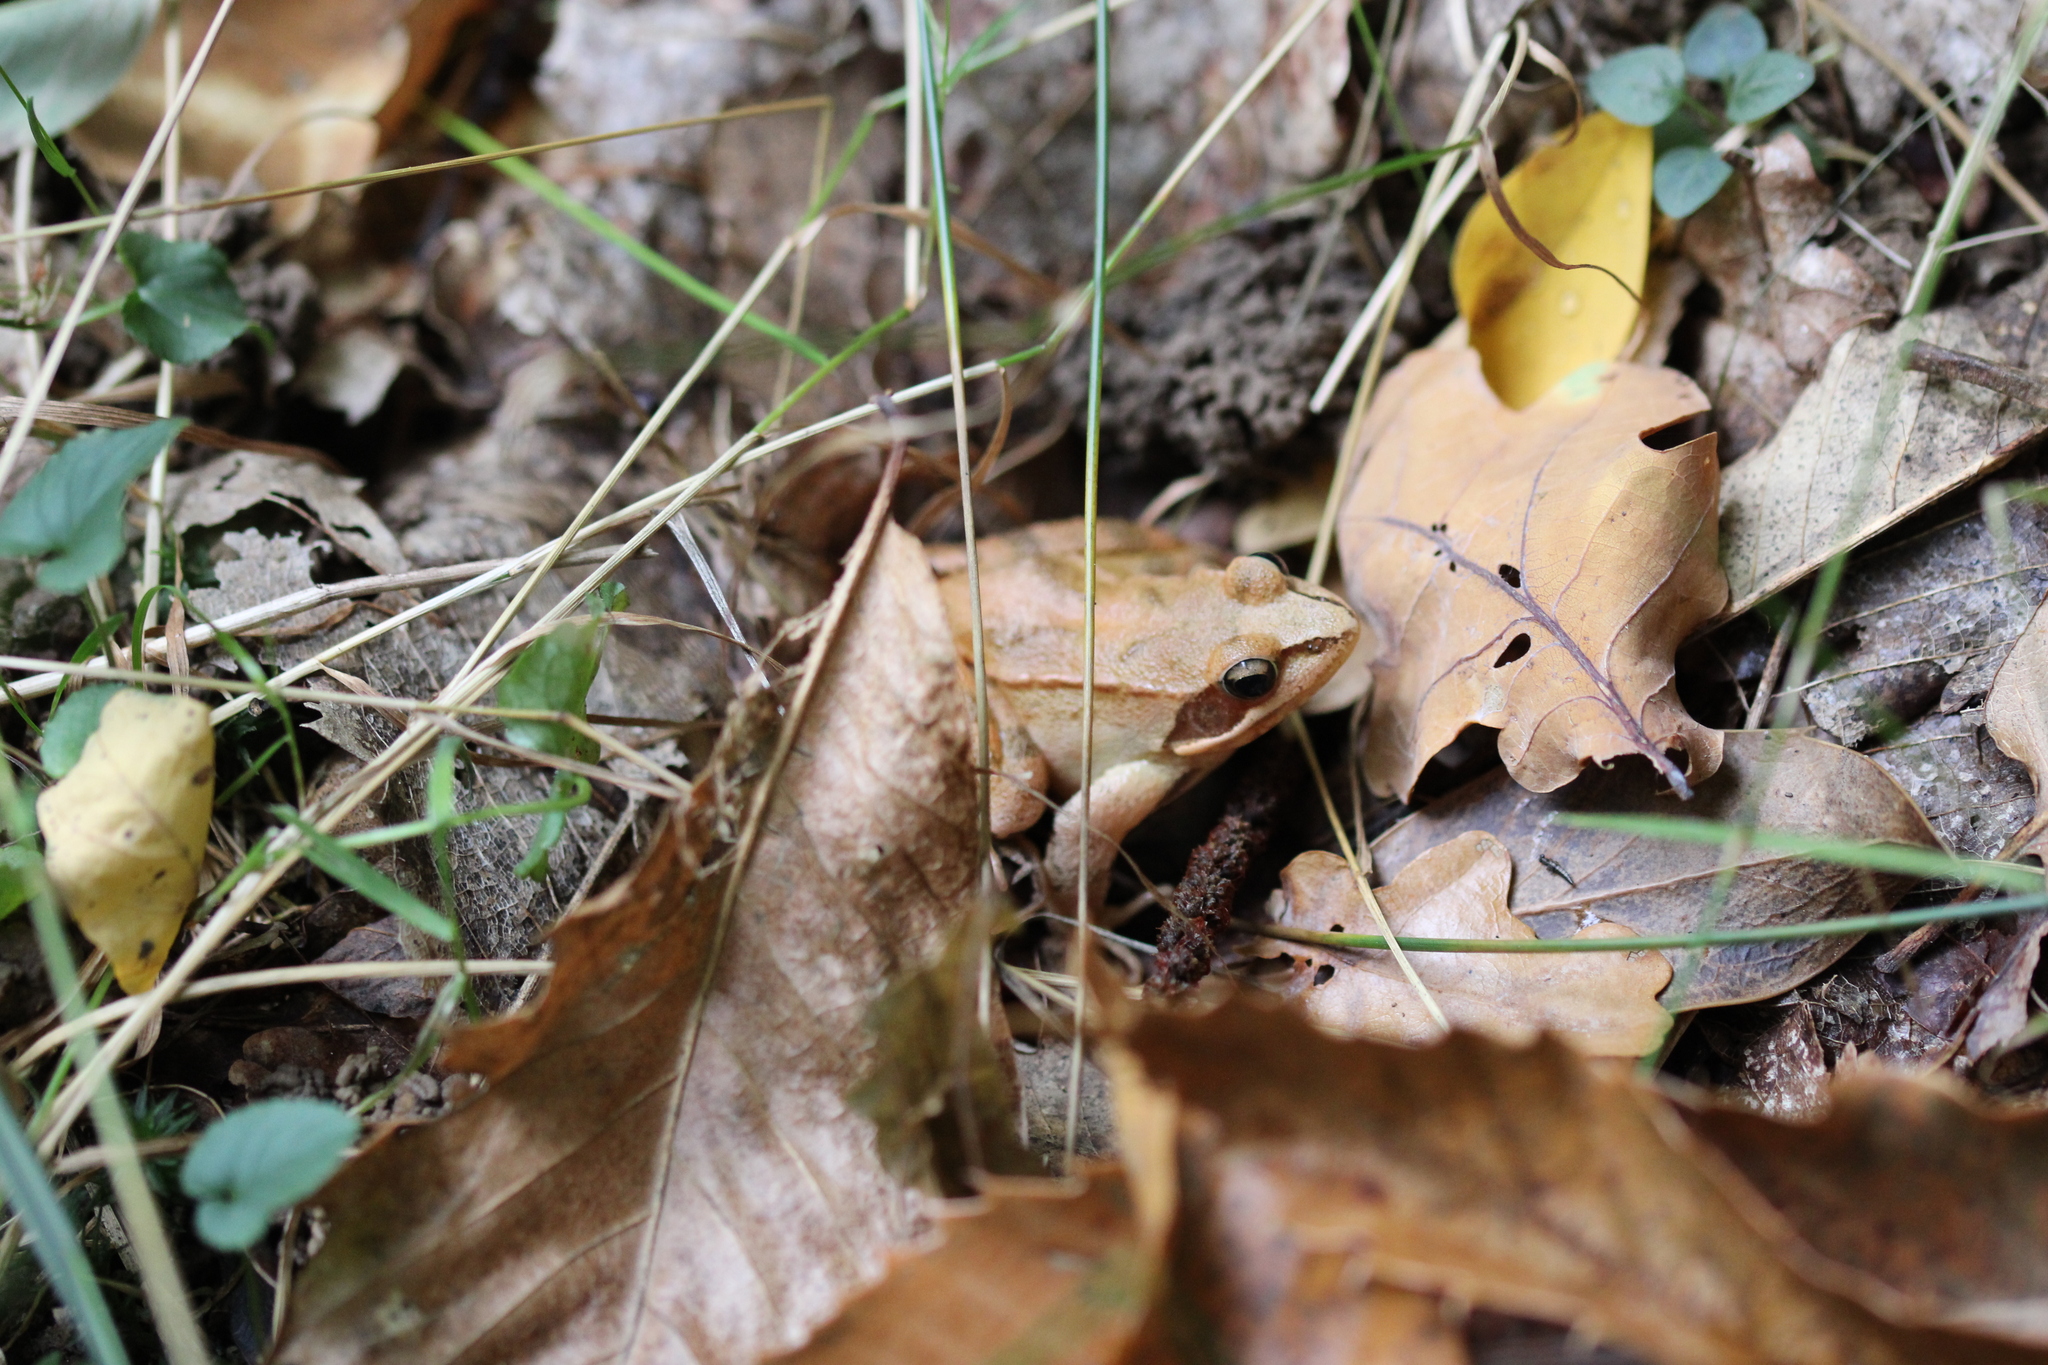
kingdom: Animalia
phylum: Chordata
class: Amphibia
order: Anura
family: Ranidae
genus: Rana
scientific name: Rana dalmatina
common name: Agile frog
